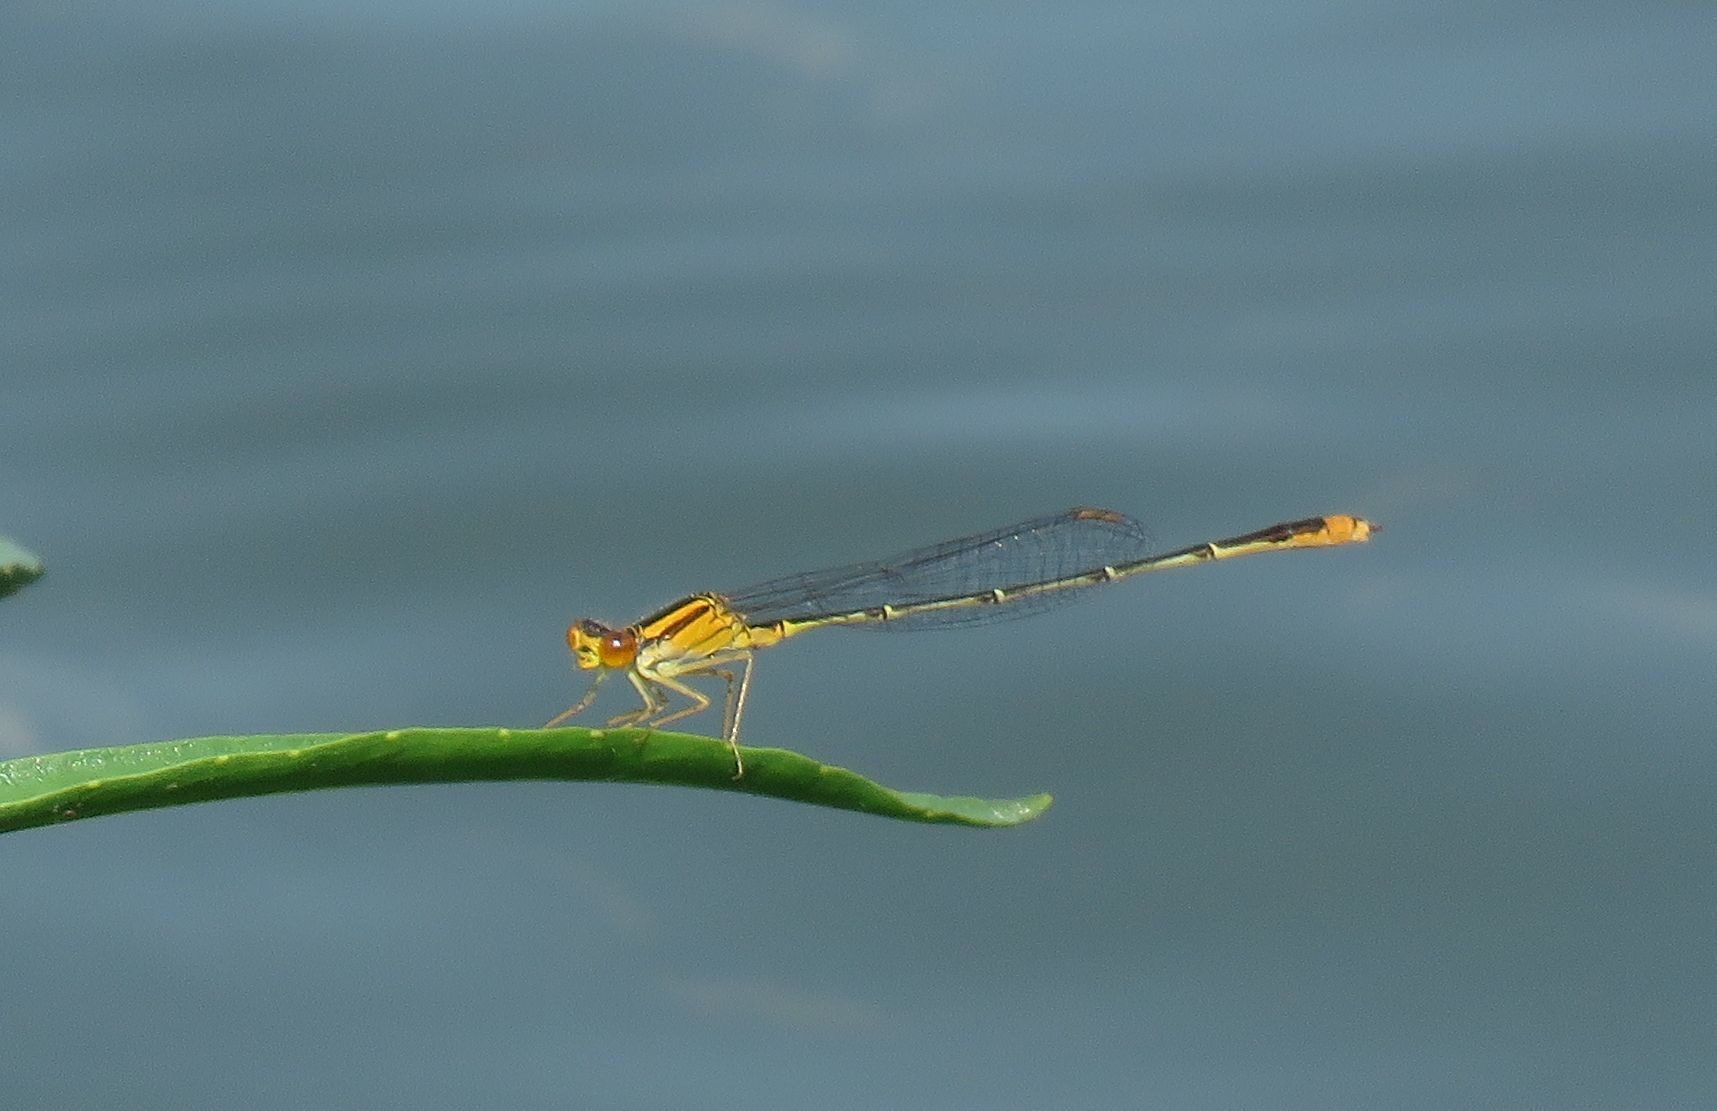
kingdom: Animalia
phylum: Arthropoda
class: Insecta
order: Odonata
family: Coenagrionidae
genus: Enallagma
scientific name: Enallagma signatum
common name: Orange bluet
